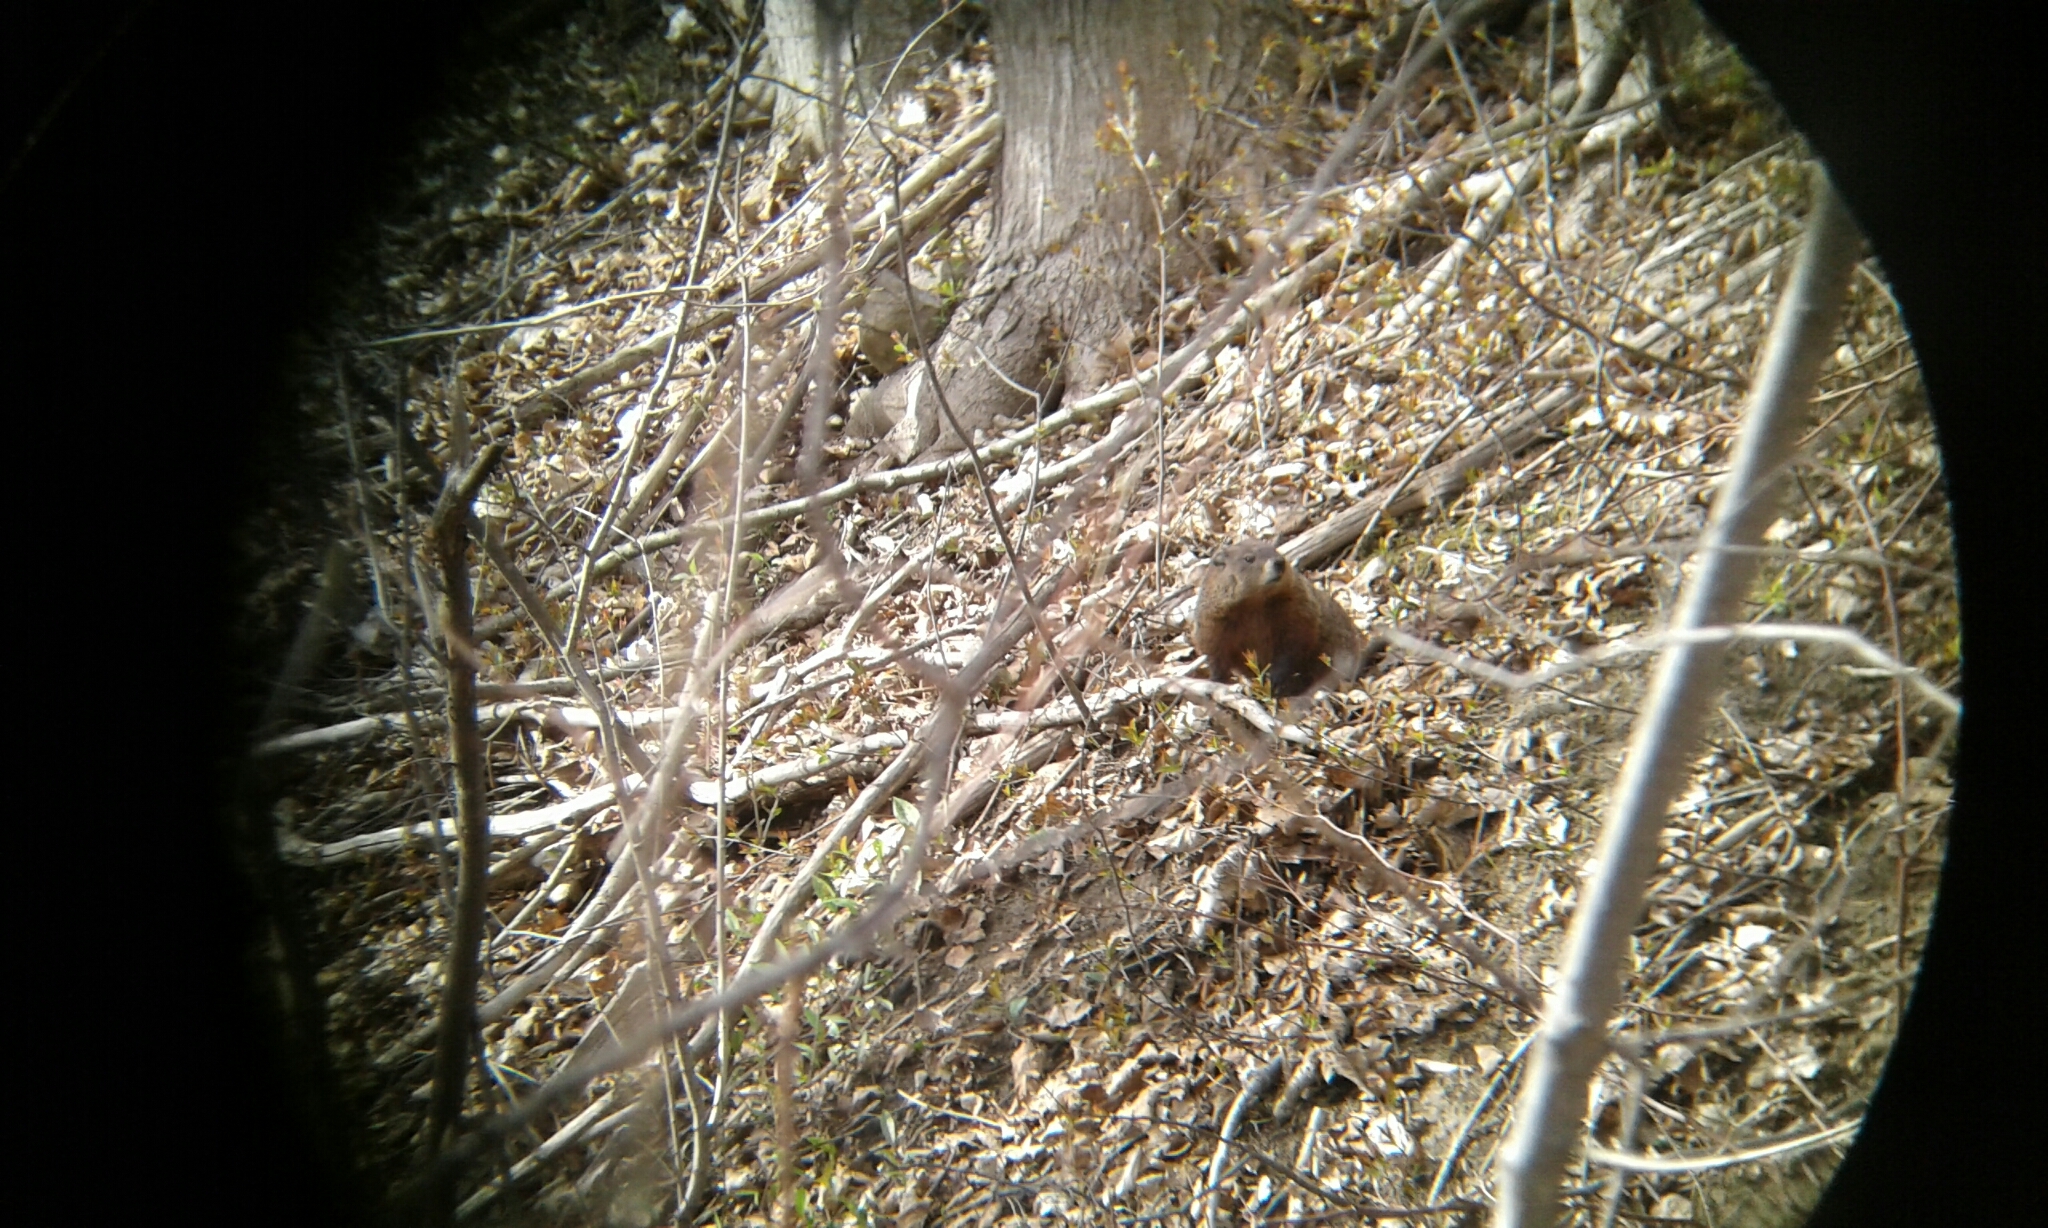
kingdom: Animalia
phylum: Chordata
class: Mammalia
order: Rodentia
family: Sciuridae
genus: Marmota
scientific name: Marmota monax
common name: Groundhog
